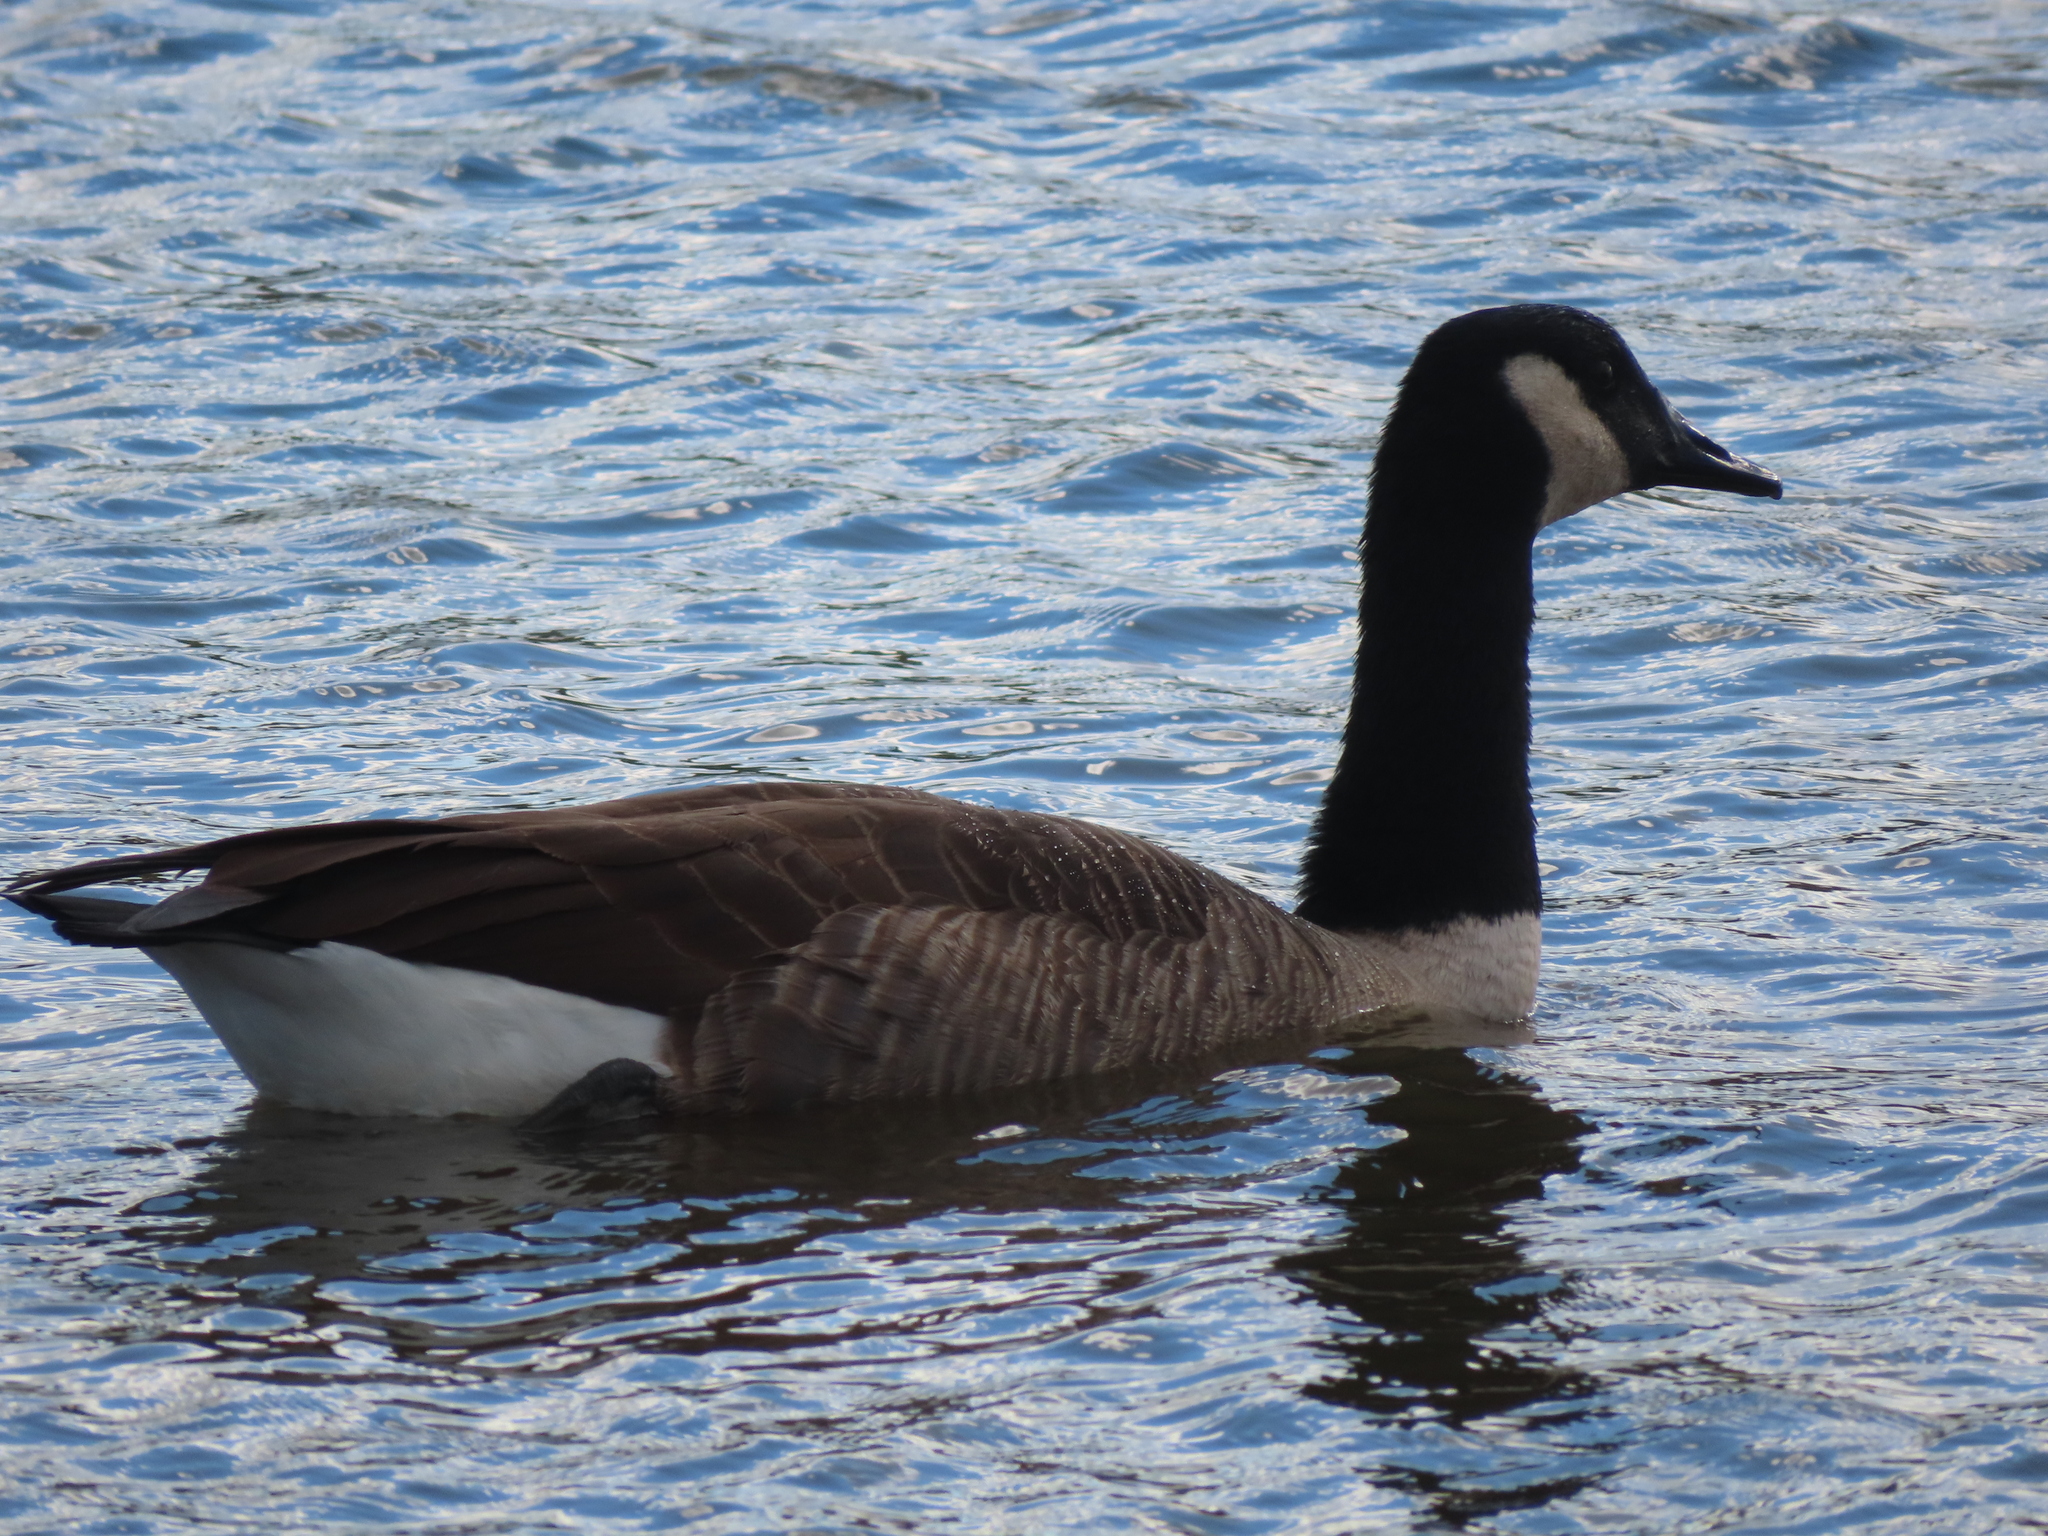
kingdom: Animalia
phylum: Chordata
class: Aves
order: Anseriformes
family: Anatidae
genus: Branta
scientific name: Branta canadensis
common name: Canada goose
